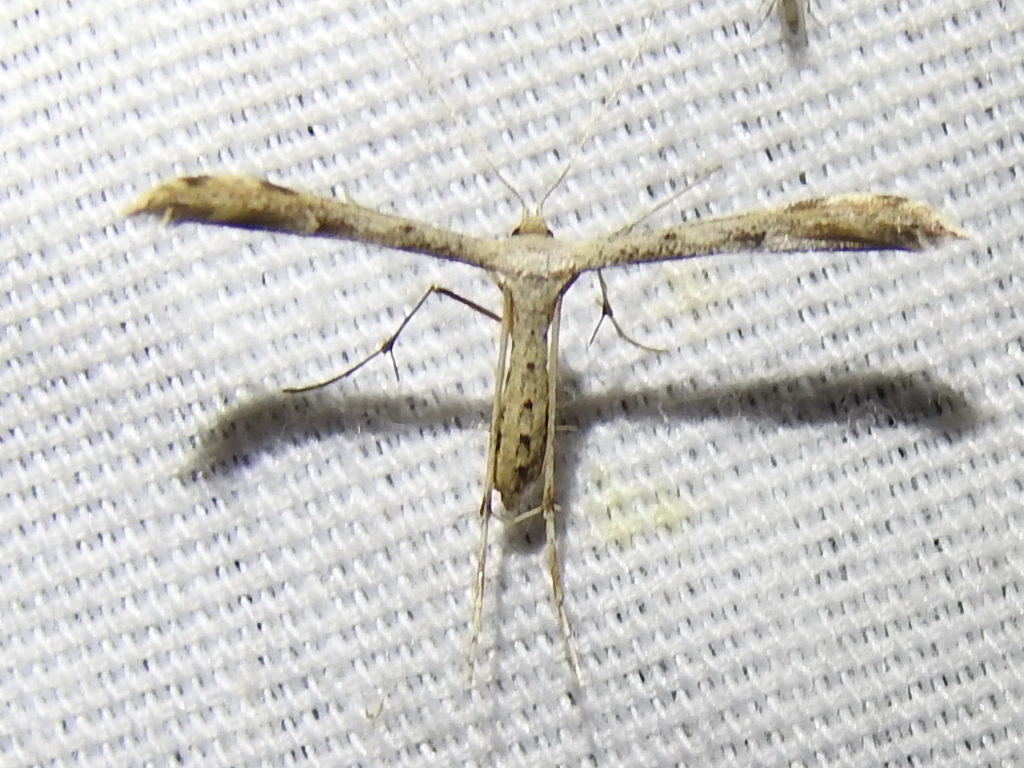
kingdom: Animalia
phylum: Arthropoda
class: Insecta
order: Lepidoptera
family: Pterophoridae
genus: Adaina
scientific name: Adaina ambrosiae
